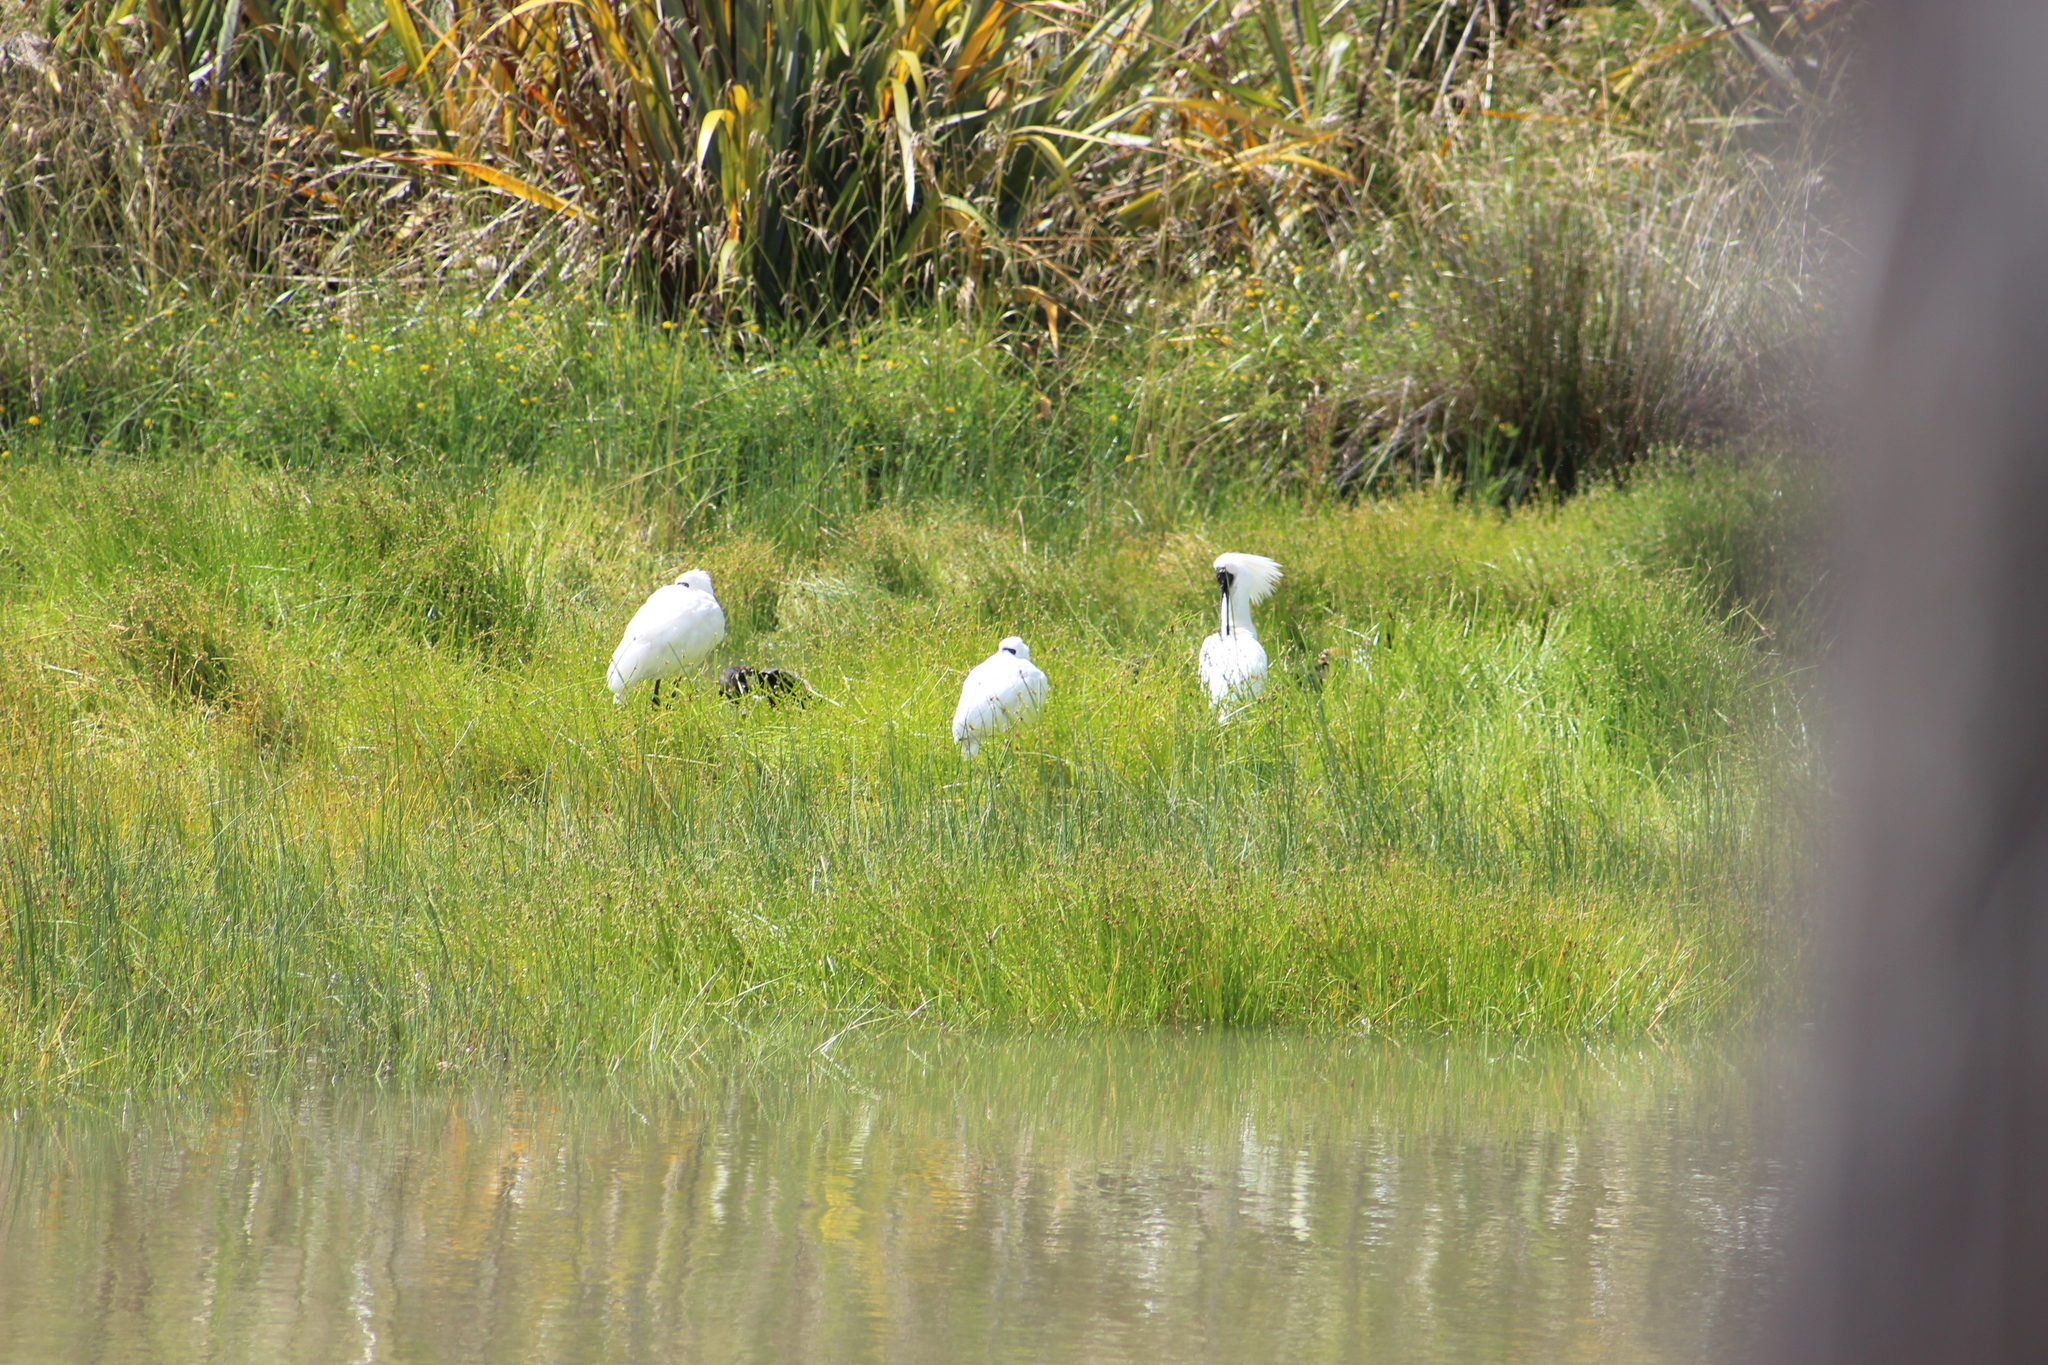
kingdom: Animalia
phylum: Chordata
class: Aves
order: Pelecaniformes
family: Threskiornithidae
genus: Platalea
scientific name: Platalea regia
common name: Royal spoonbill
